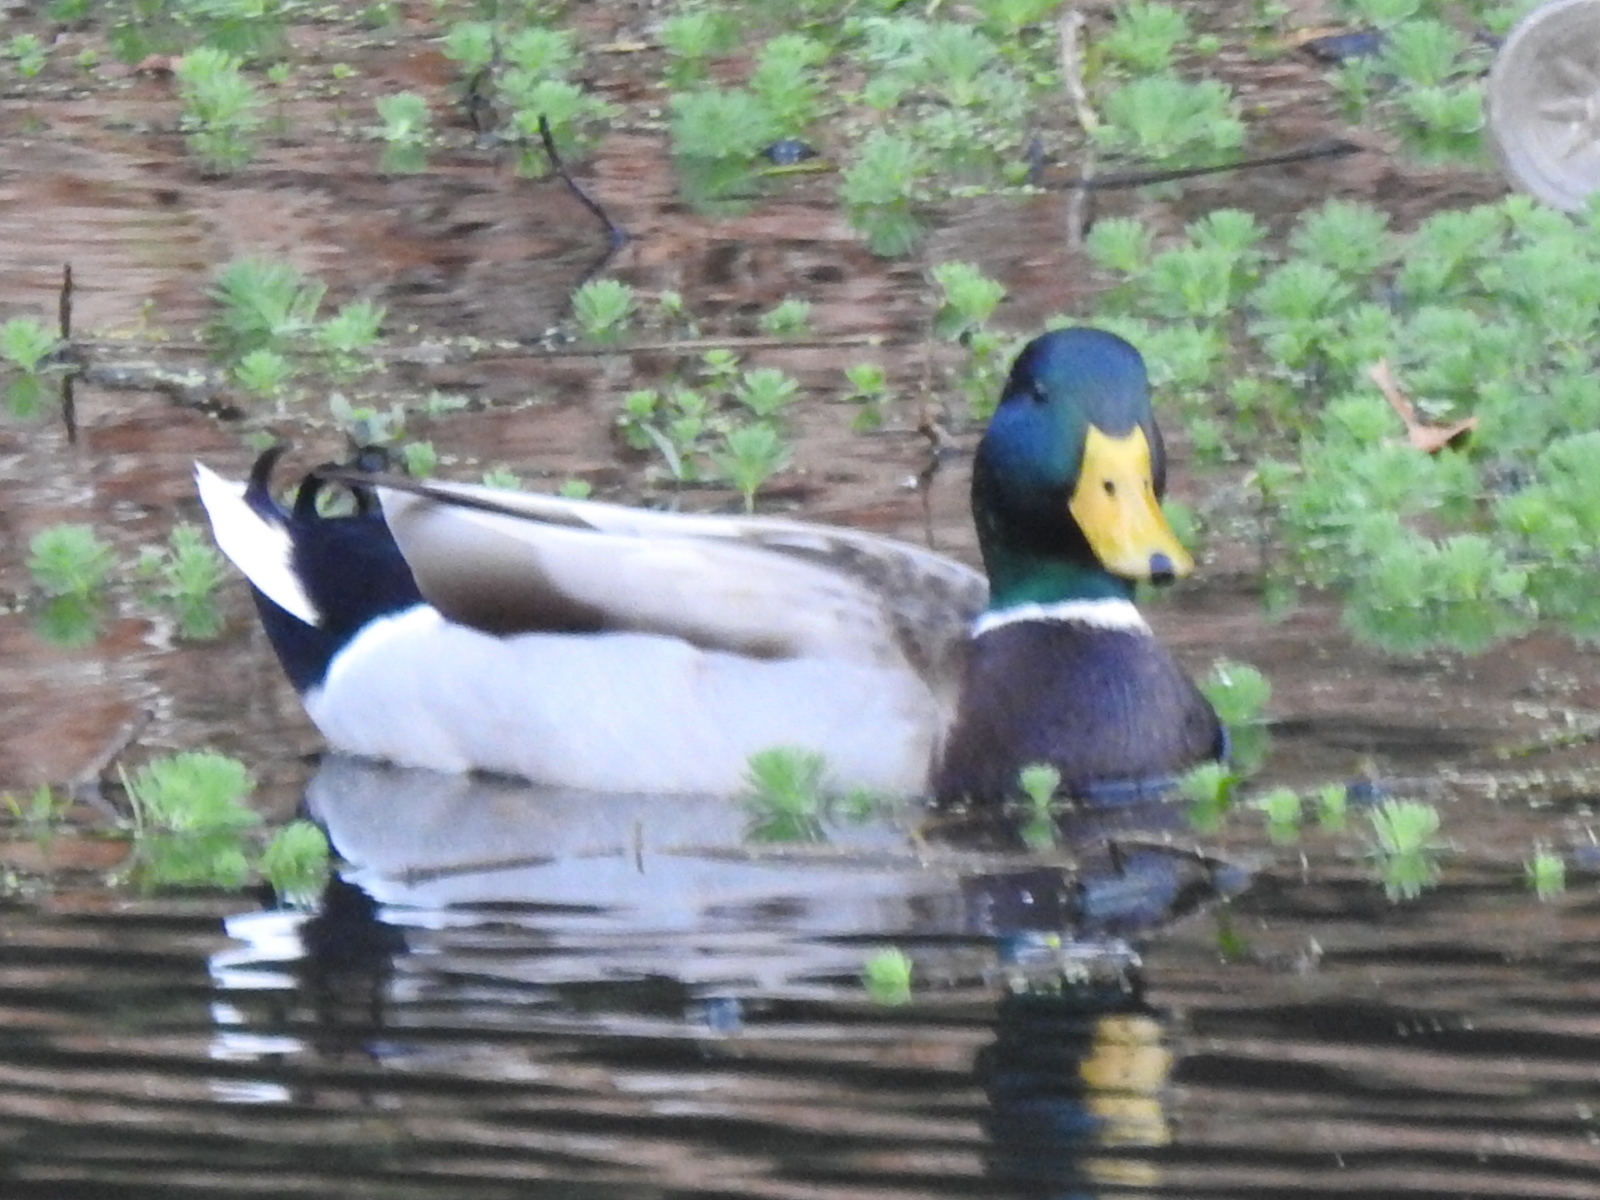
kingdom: Animalia
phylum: Chordata
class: Aves
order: Anseriformes
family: Anatidae
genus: Anas
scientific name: Anas platyrhynchos
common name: Mallard
